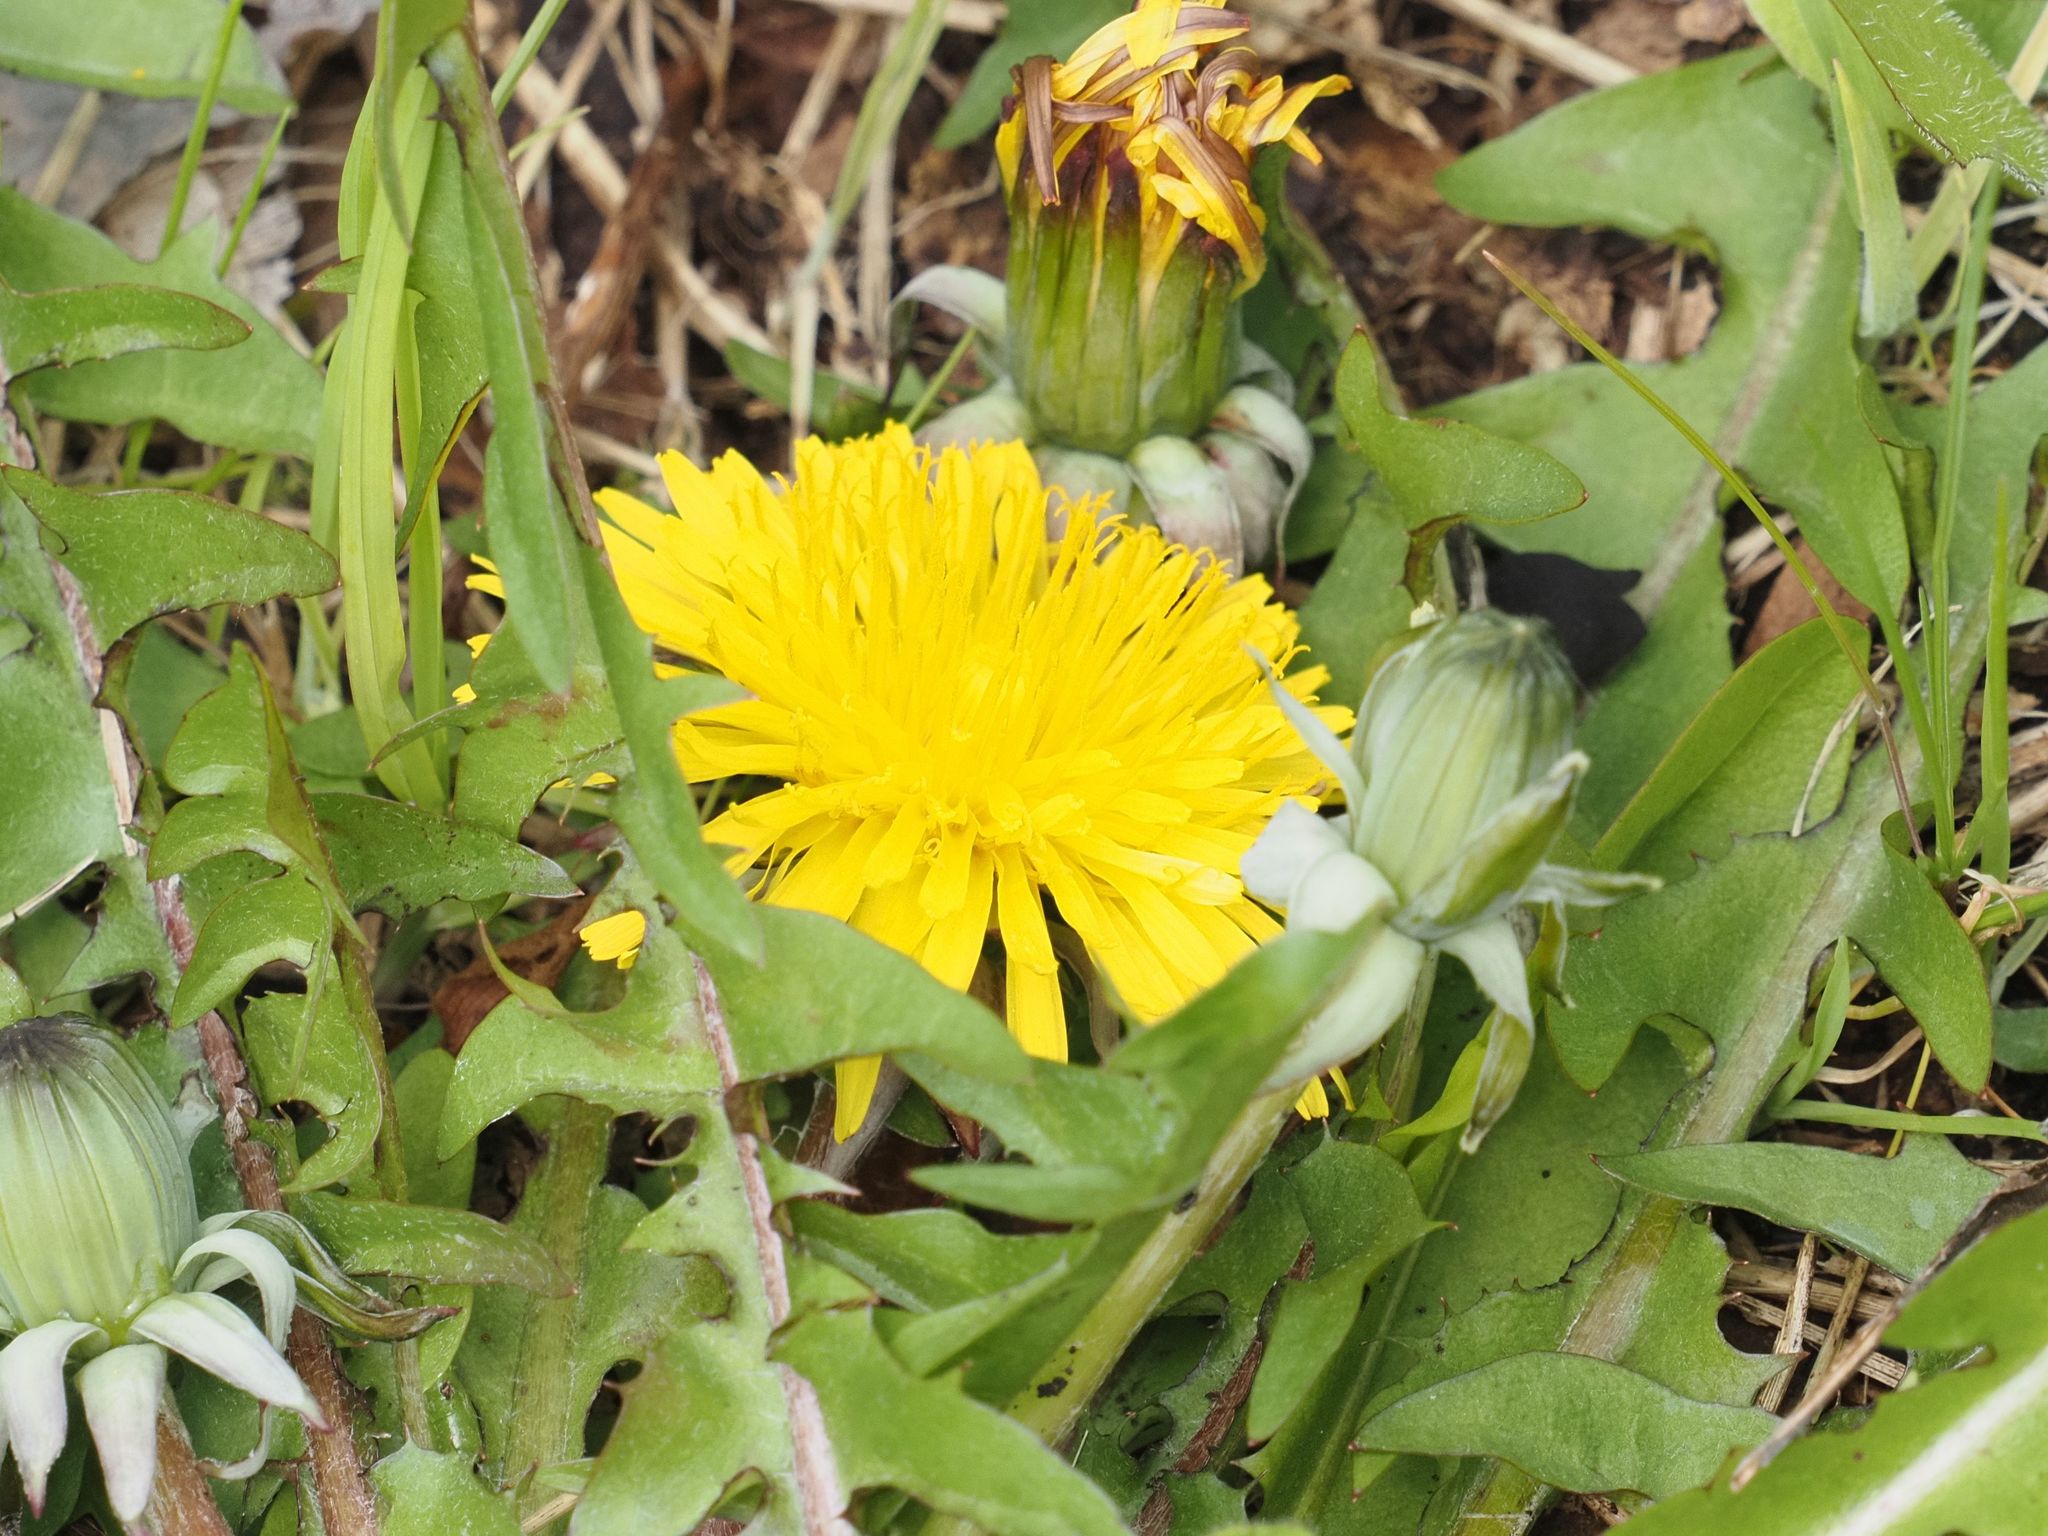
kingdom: Plantae
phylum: Tracheophyta
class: Magnoliopsida
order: Asterales
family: Asteraceae
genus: Taraxacum
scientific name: Taraxacum officinale
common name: Common dandelion
